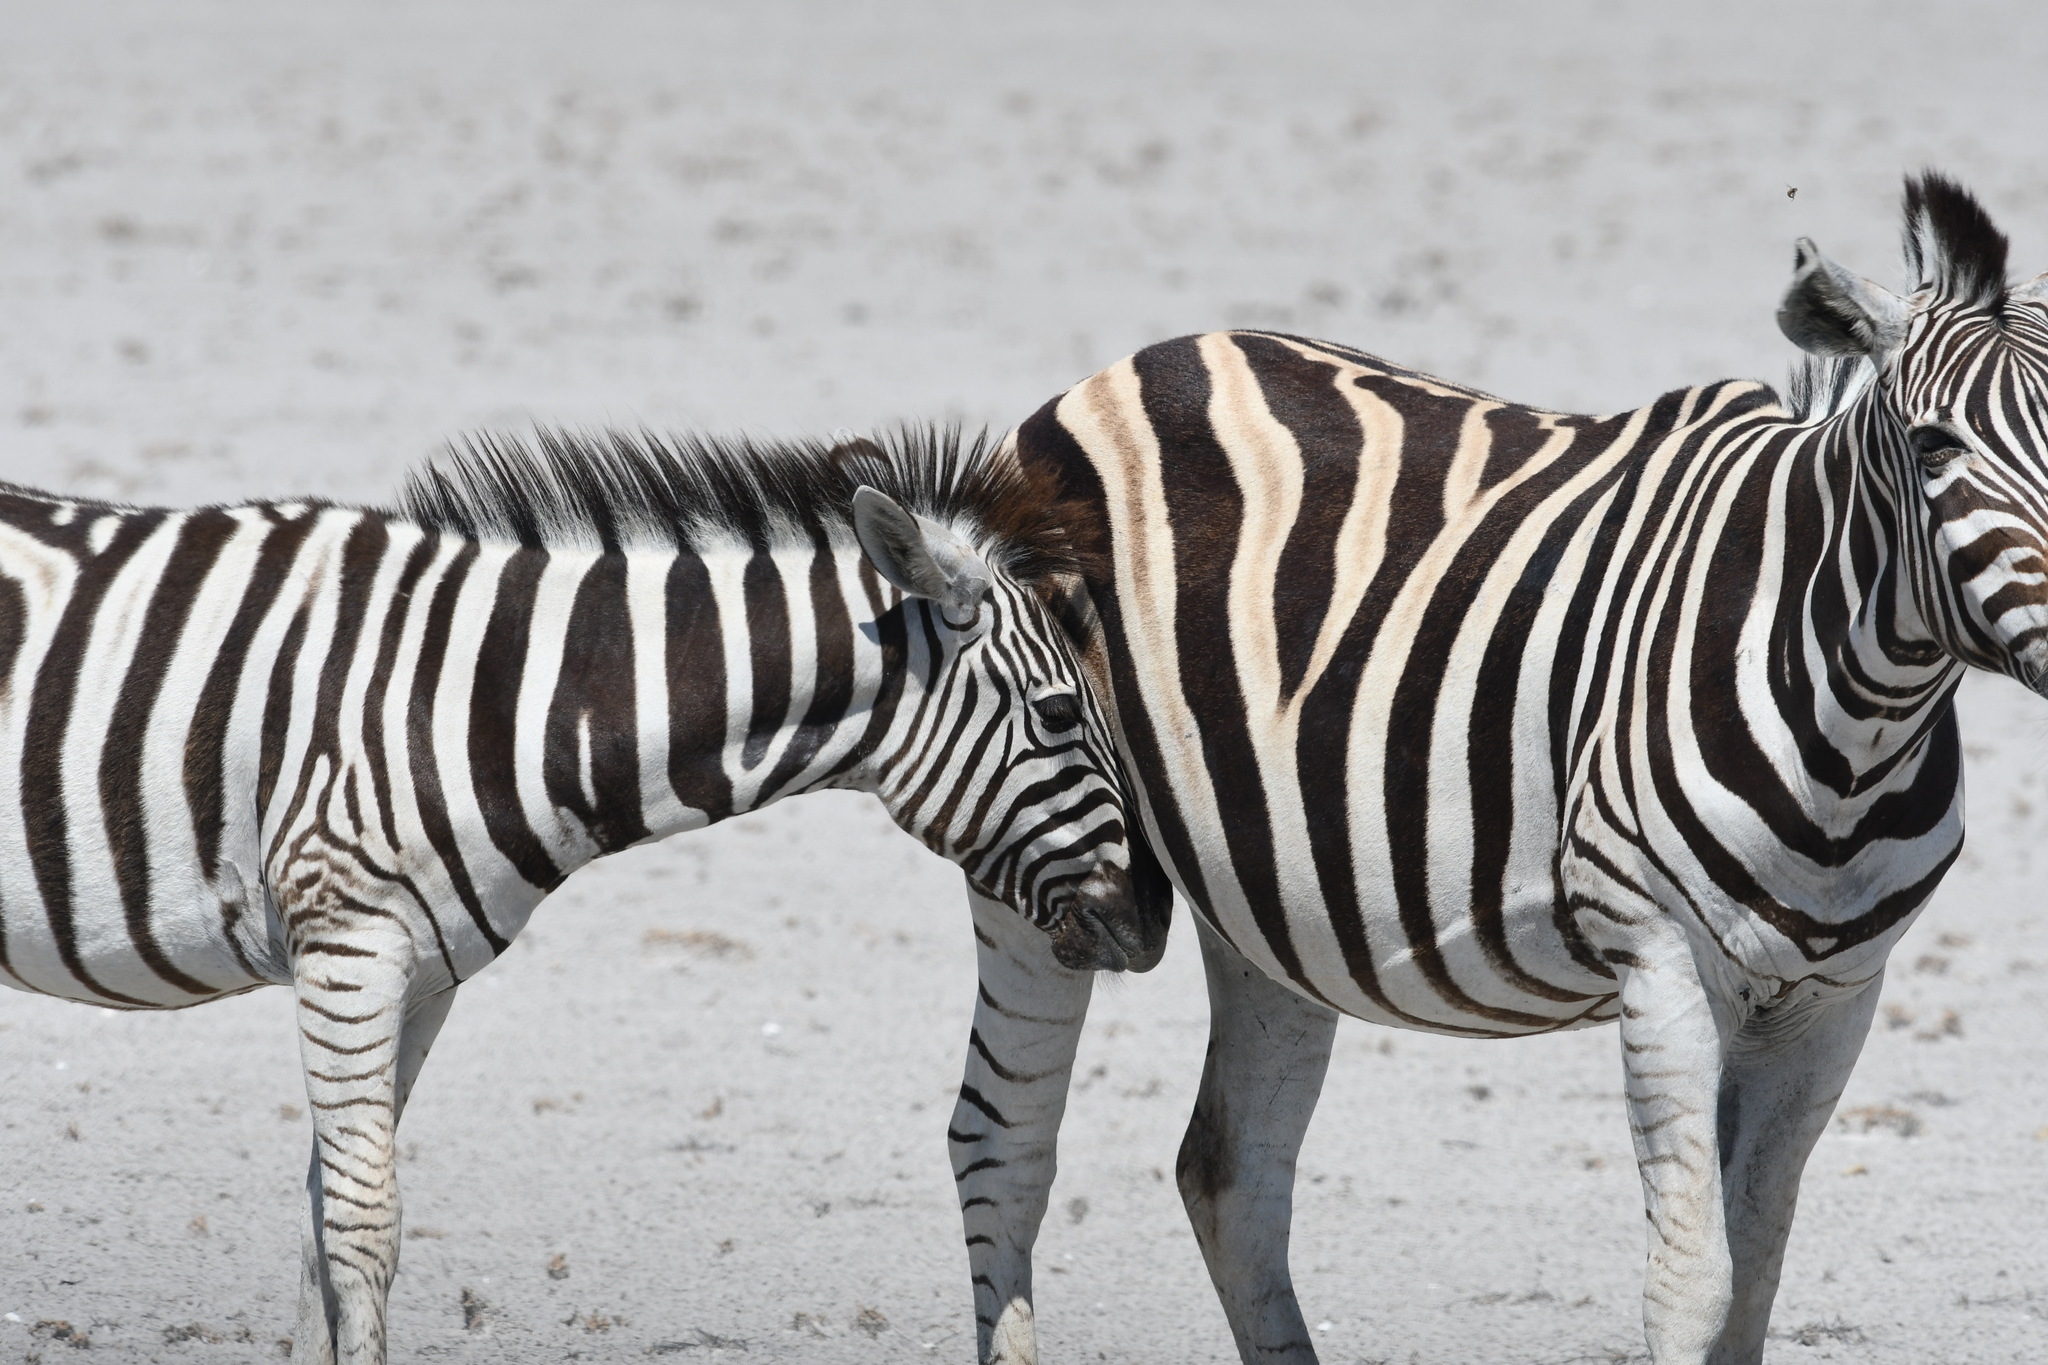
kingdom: Animalia
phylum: Chordata
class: Mammalia
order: Perissodactyla
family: Equidae
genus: Equus
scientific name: Equus quagga
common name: Plains zebra
